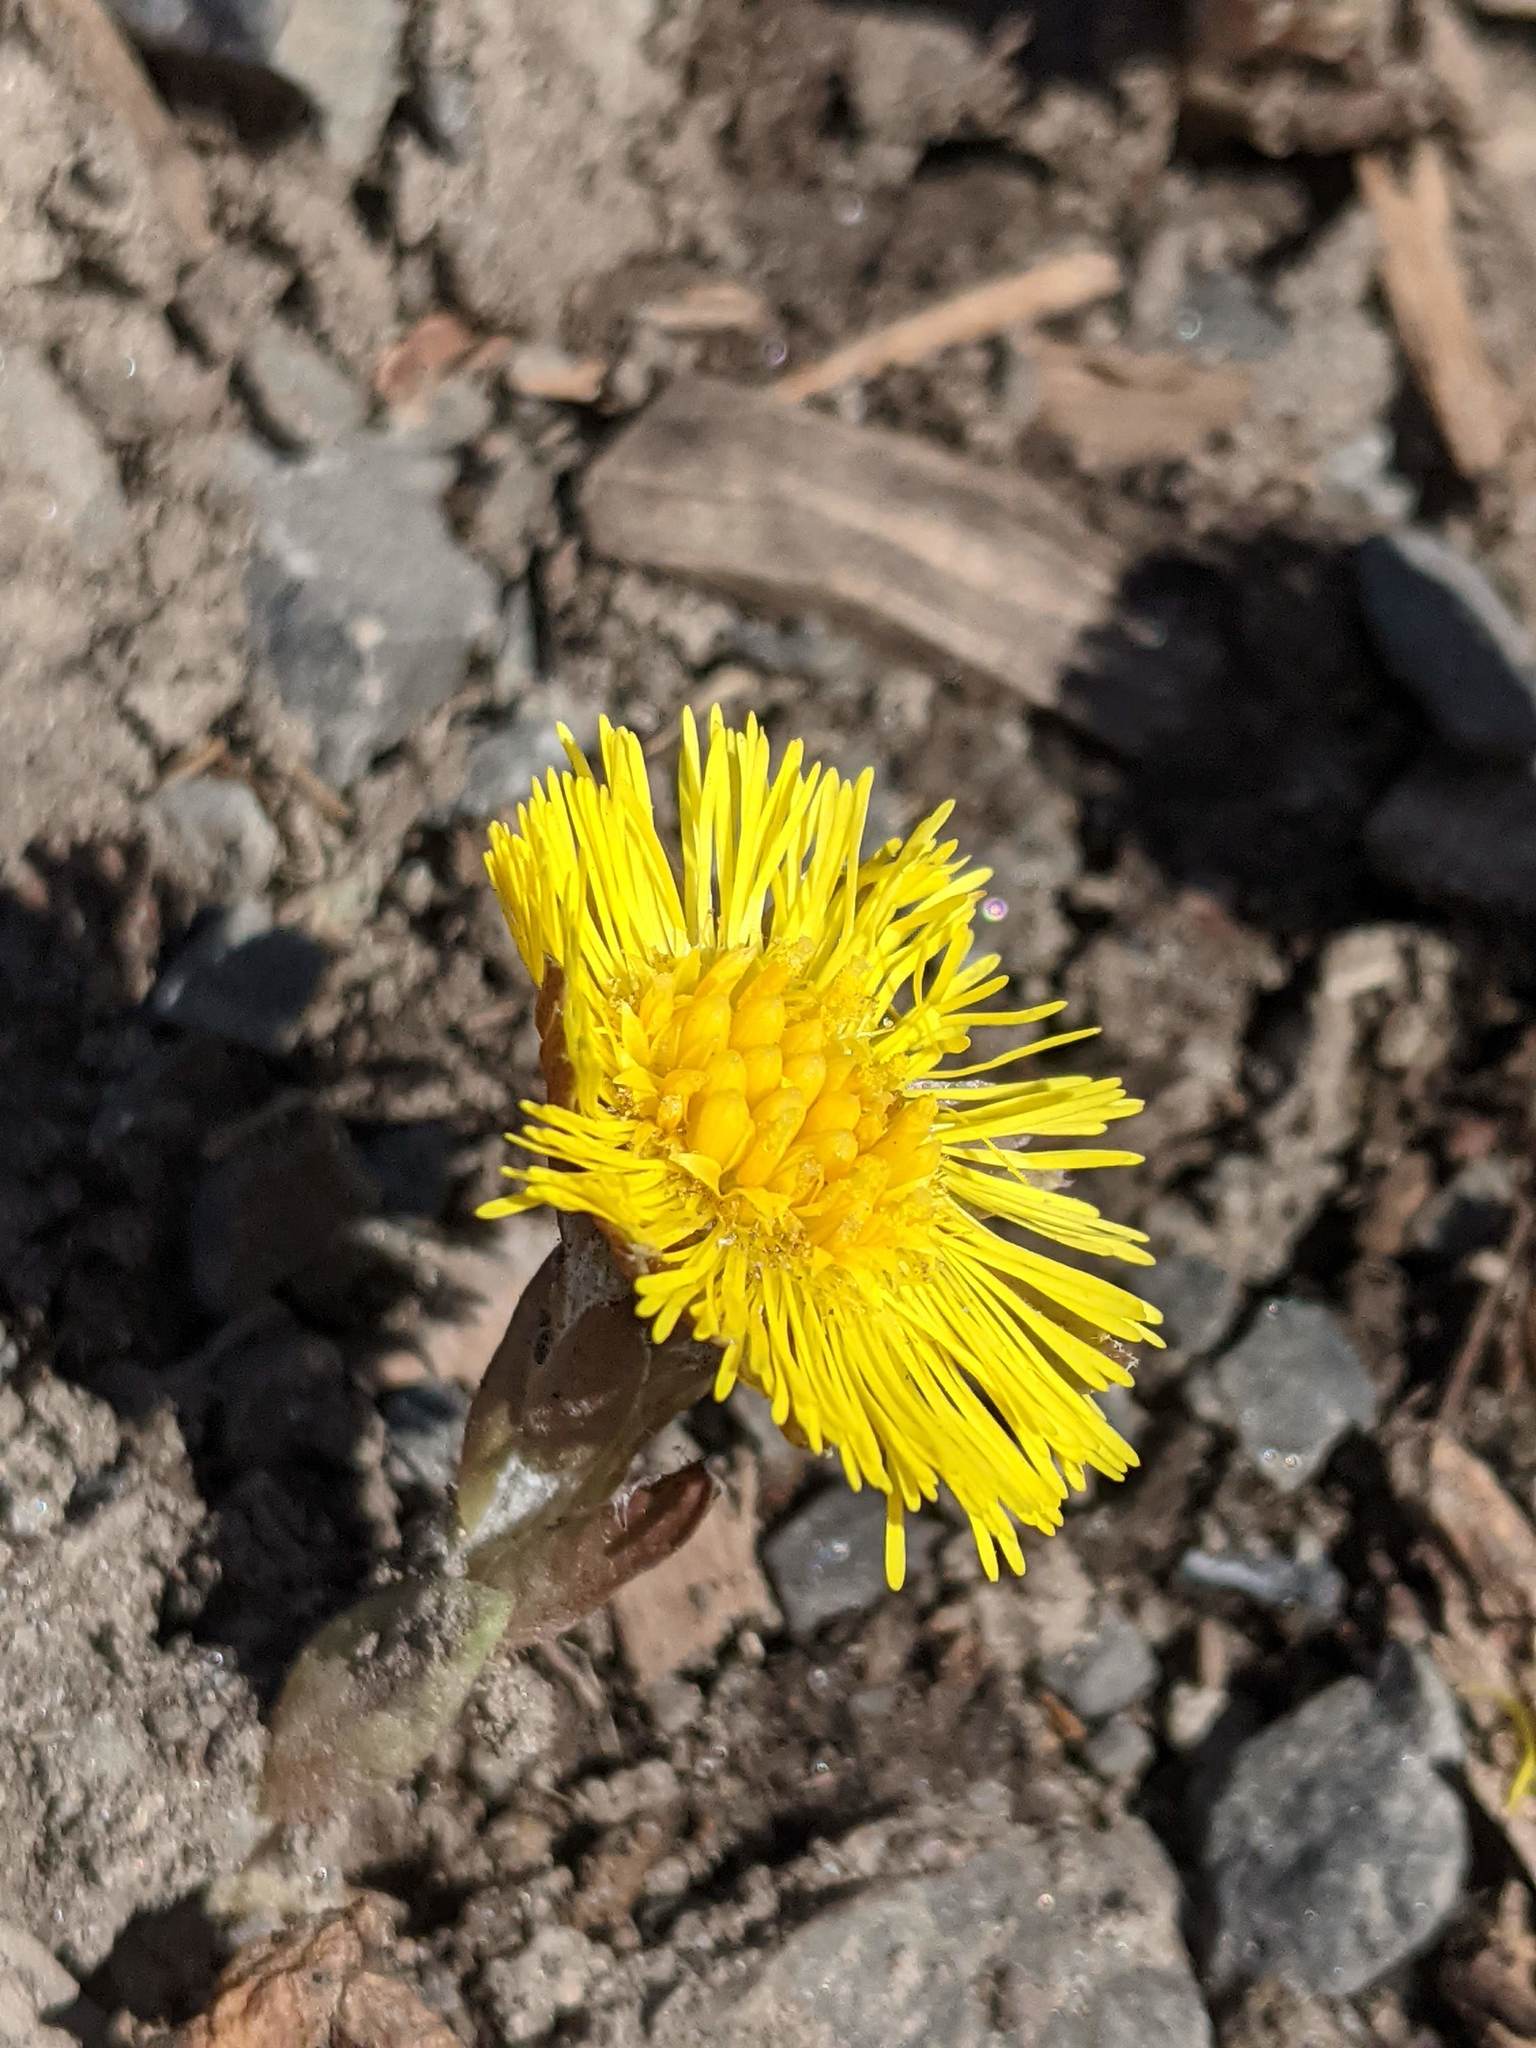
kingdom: Plantae
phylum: Tracheophyta
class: Magnoliopsida
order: Asterales
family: Asteraceae
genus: Tussilago
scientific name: Tussilago farfara
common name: Coltsfoot
